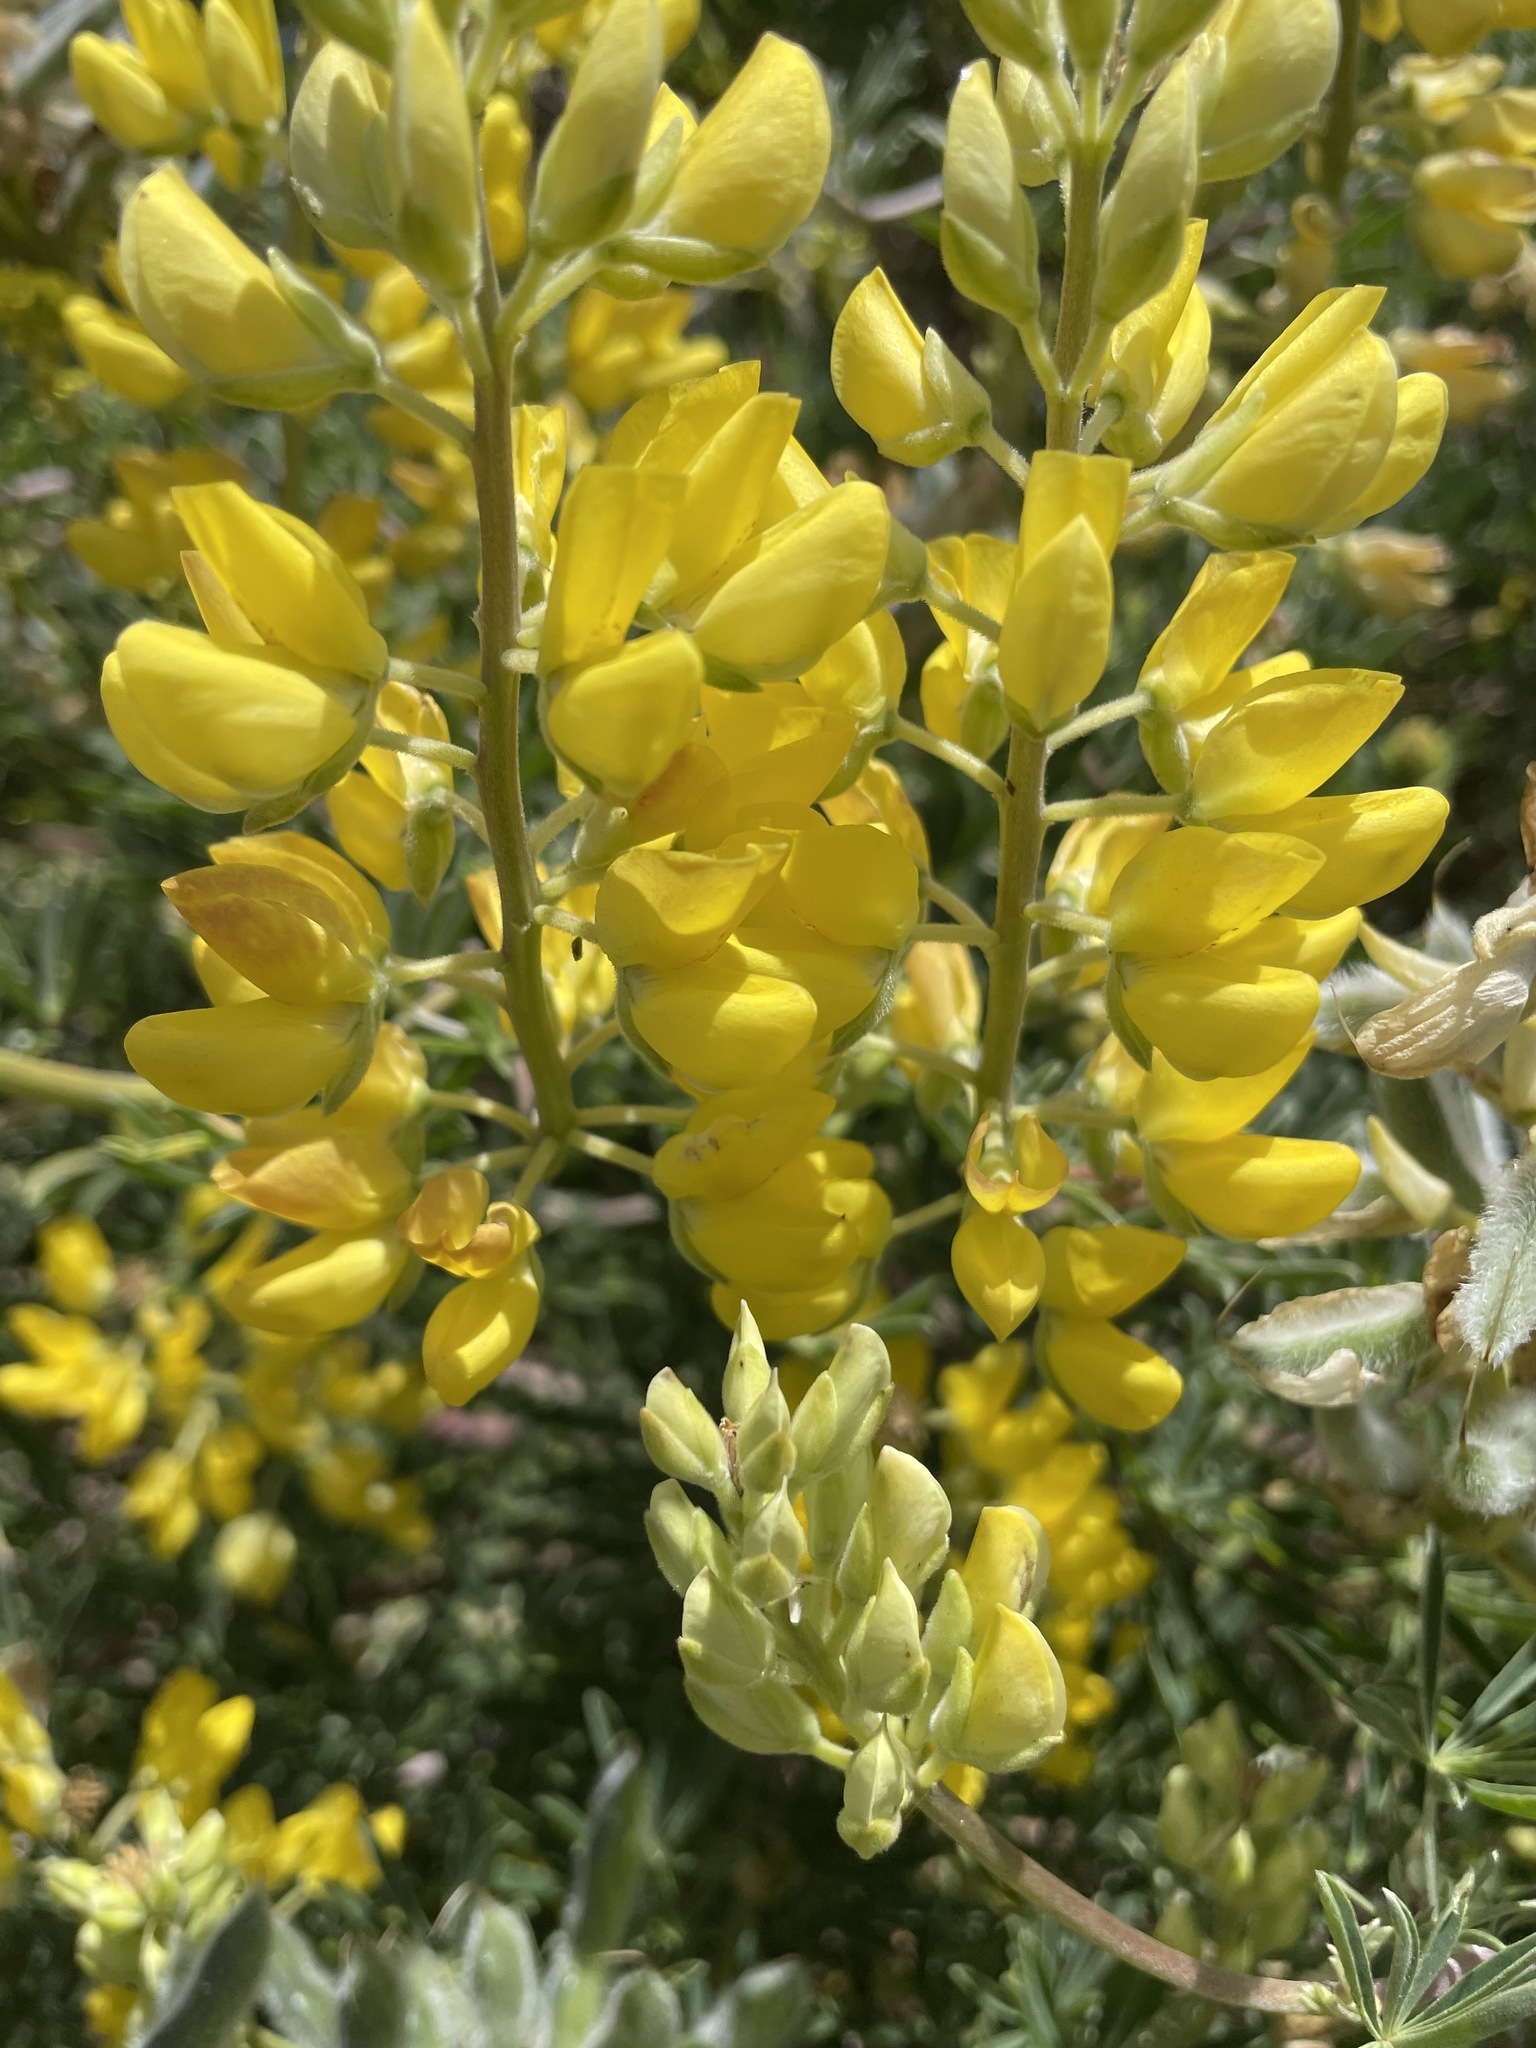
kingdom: Plantae
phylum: Tracheophyta
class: Magnoliopsida
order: Fabales
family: Fabaceae
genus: Lupinus
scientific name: Lupinus arboreus
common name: Yellow bush lupine
